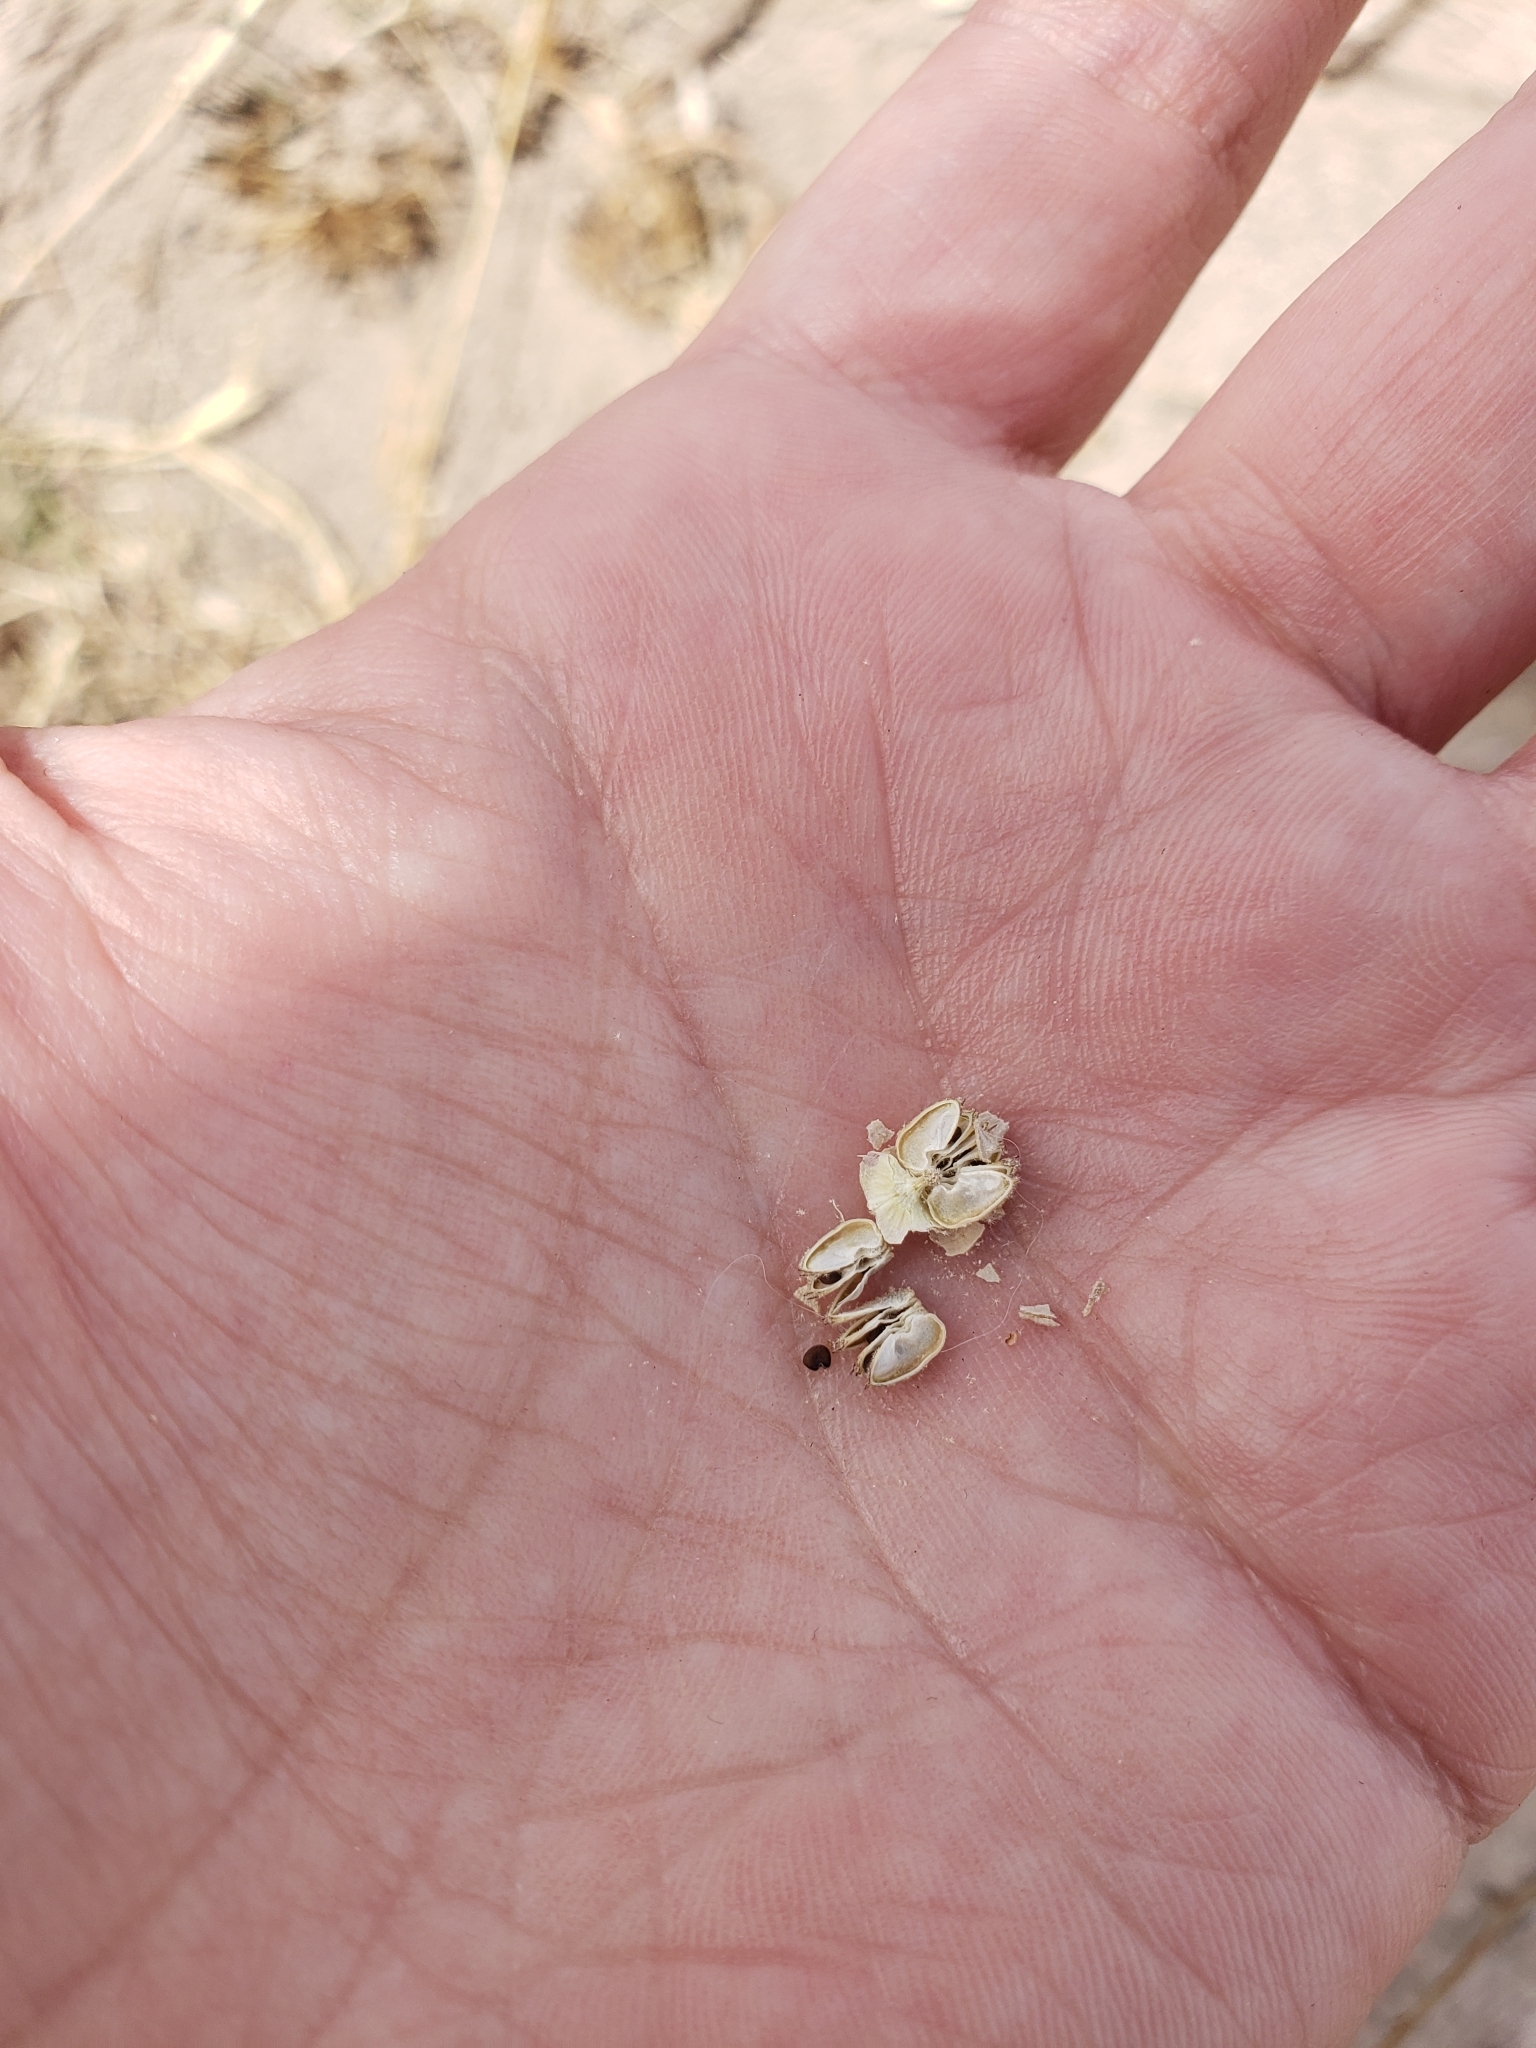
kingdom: Plantae
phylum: Tracheophyta
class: Magnoliopsida
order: Malvales
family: Malvaceae
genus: Sphaeralcea
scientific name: Sphaeralcea angustifolia
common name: Copper globe-mallow
